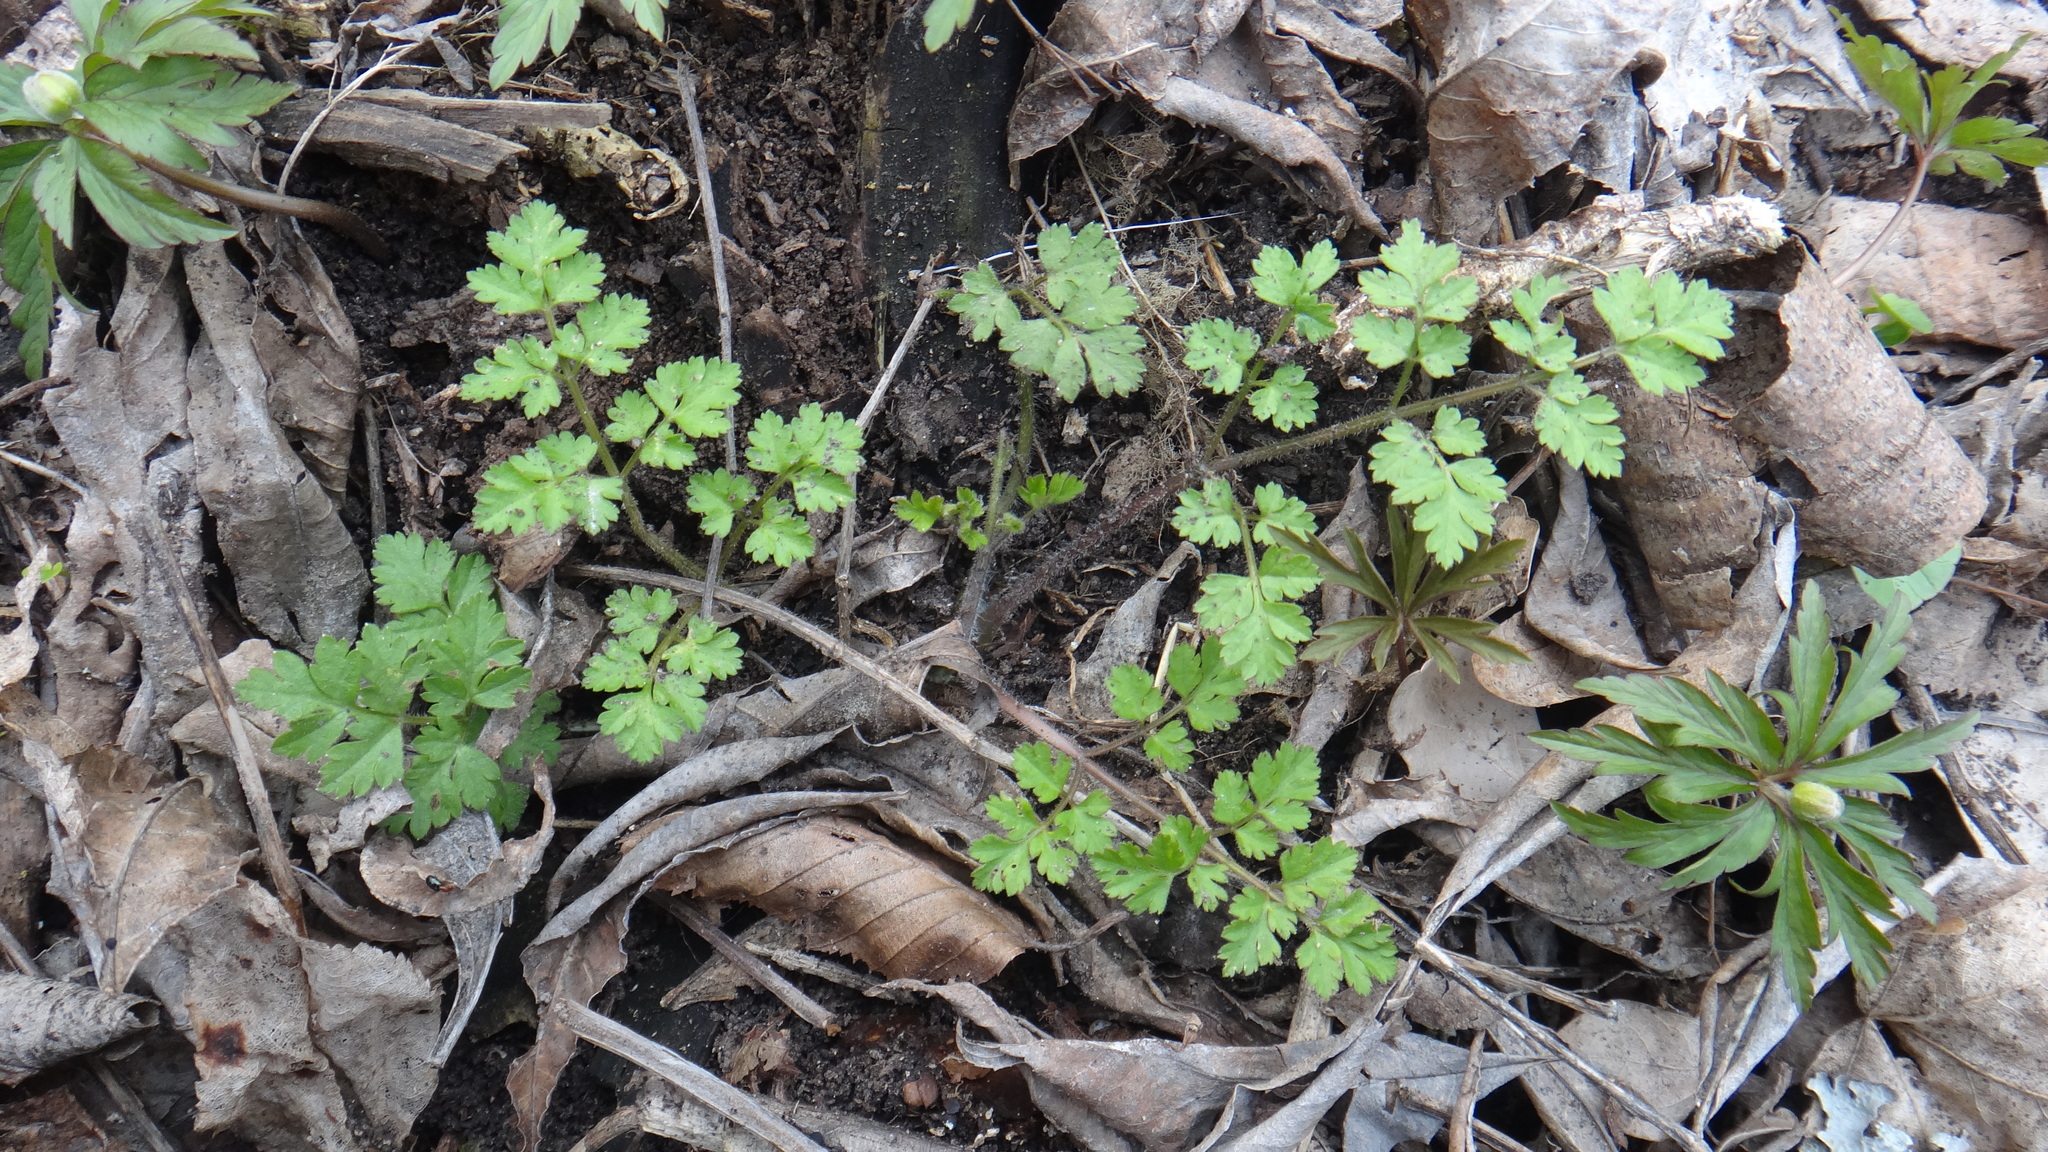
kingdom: Plantae
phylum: Tracheophyta
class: Magnoliopsida
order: Apiales
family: Apiaceae
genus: Chaerophyllum
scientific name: Chaerophyllum temulum
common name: Rough chervil
